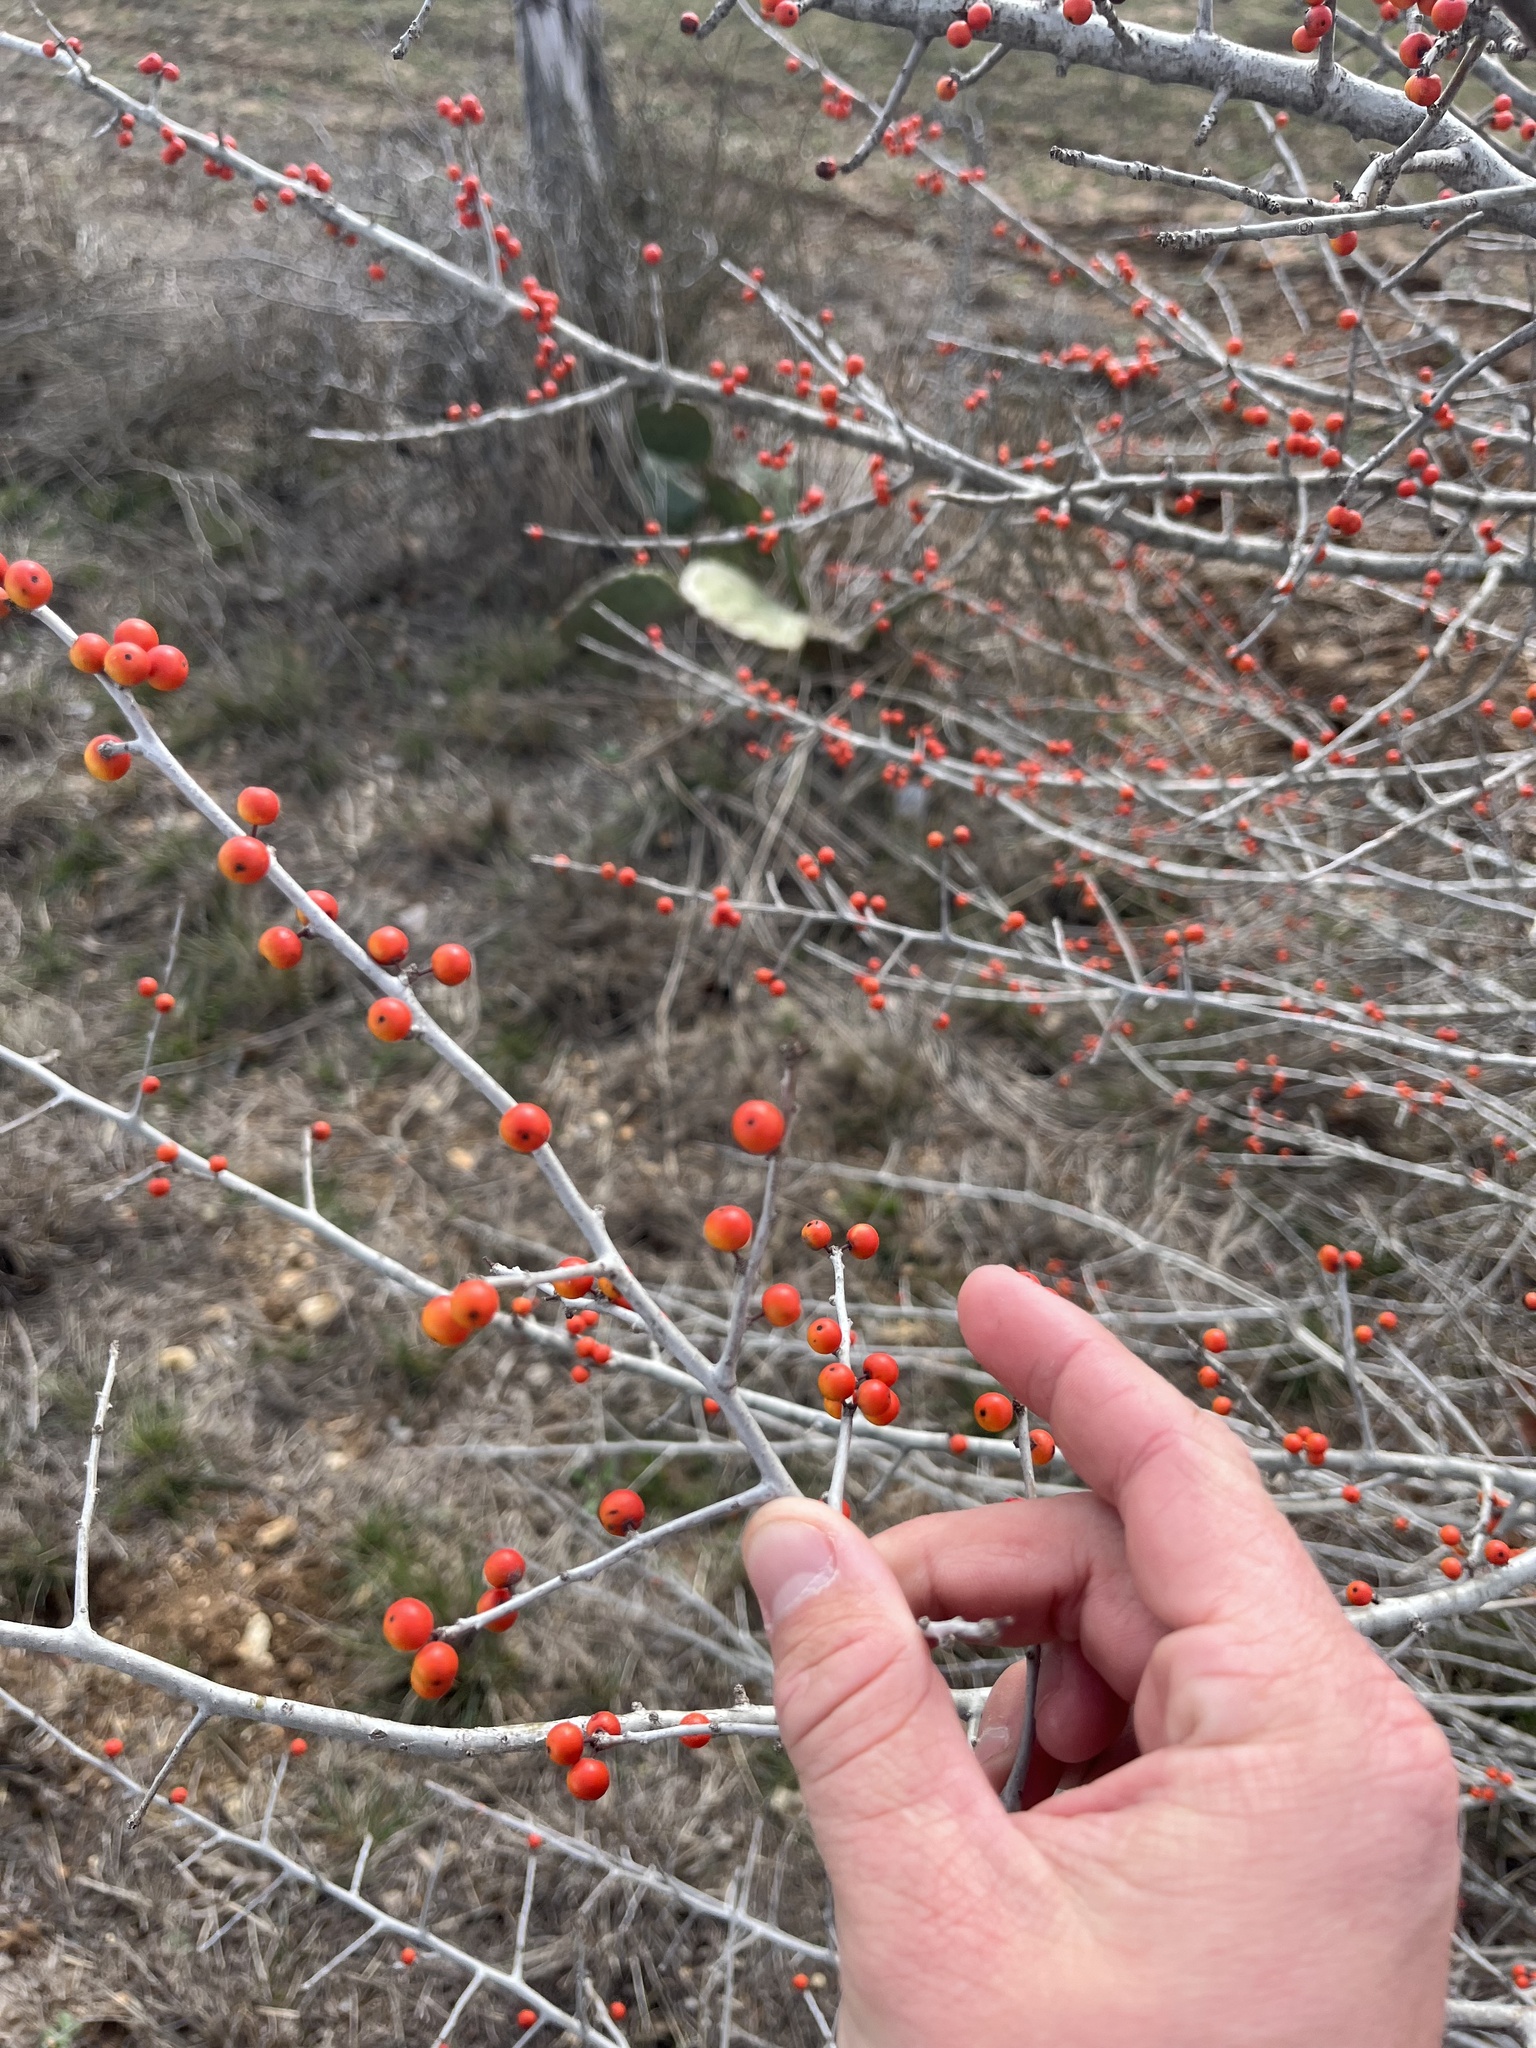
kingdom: Plantae
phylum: Tracheophyta
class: Magnoliopsida
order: Aquifoliales
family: Aquifoliaceae
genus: Ilex
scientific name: Ilex decidua
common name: Possum-haw
